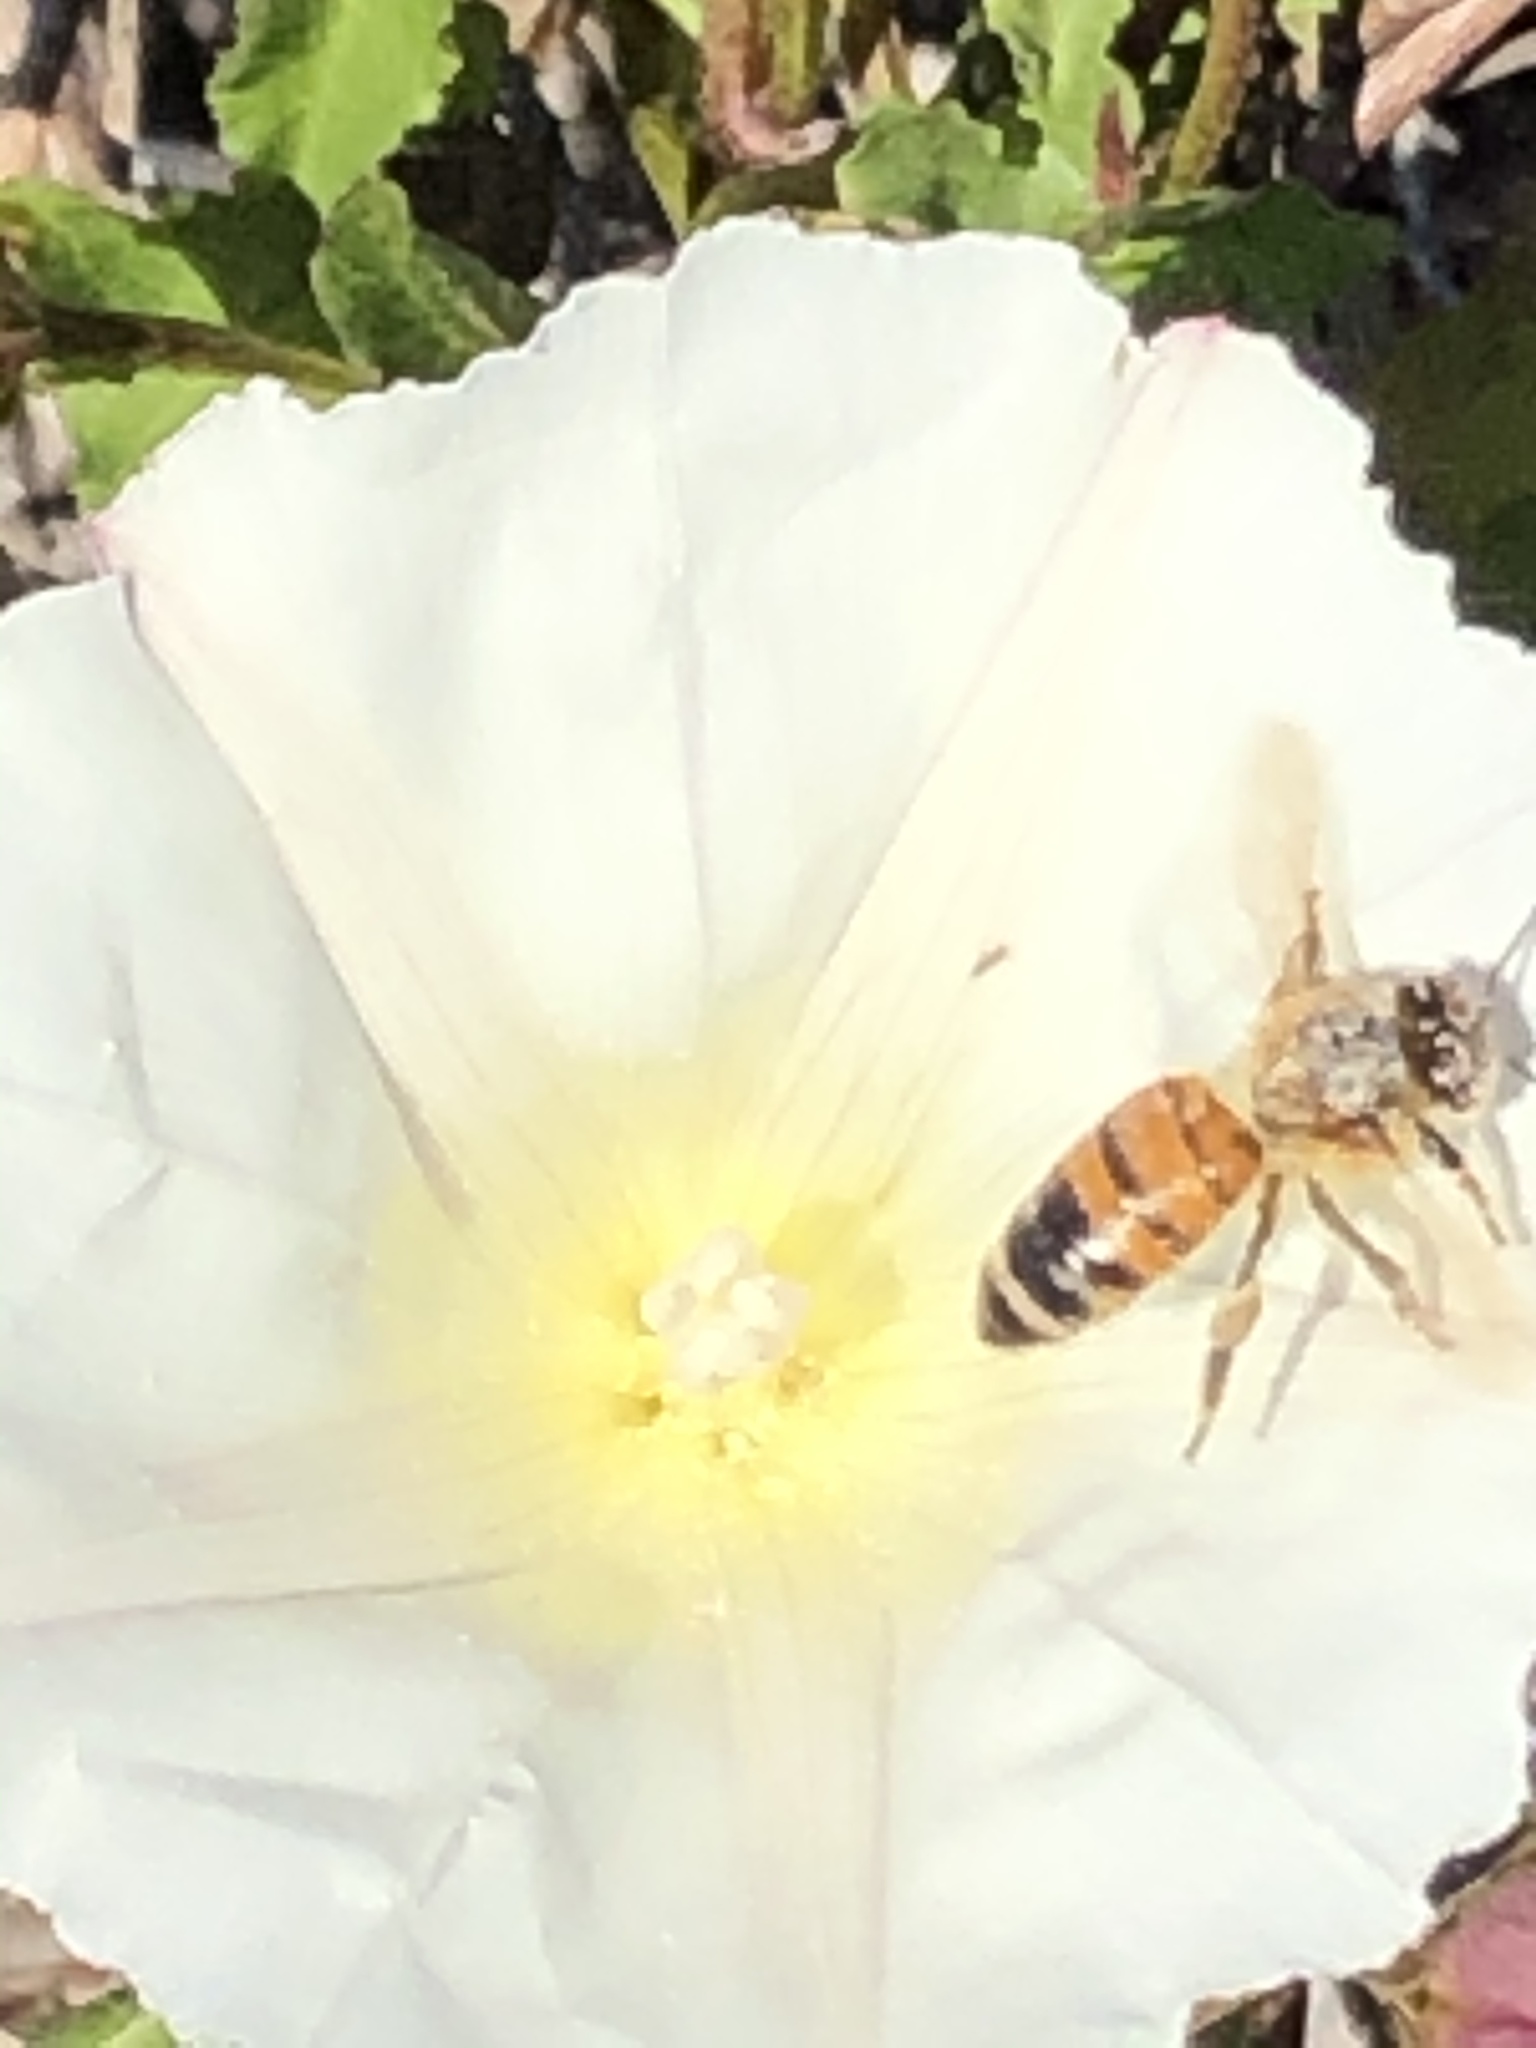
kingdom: Animalia
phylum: Arthropoda
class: Insecta
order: Hymenoptera
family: Apidae
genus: Apis
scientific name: Apis mellifera
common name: Honey bee
